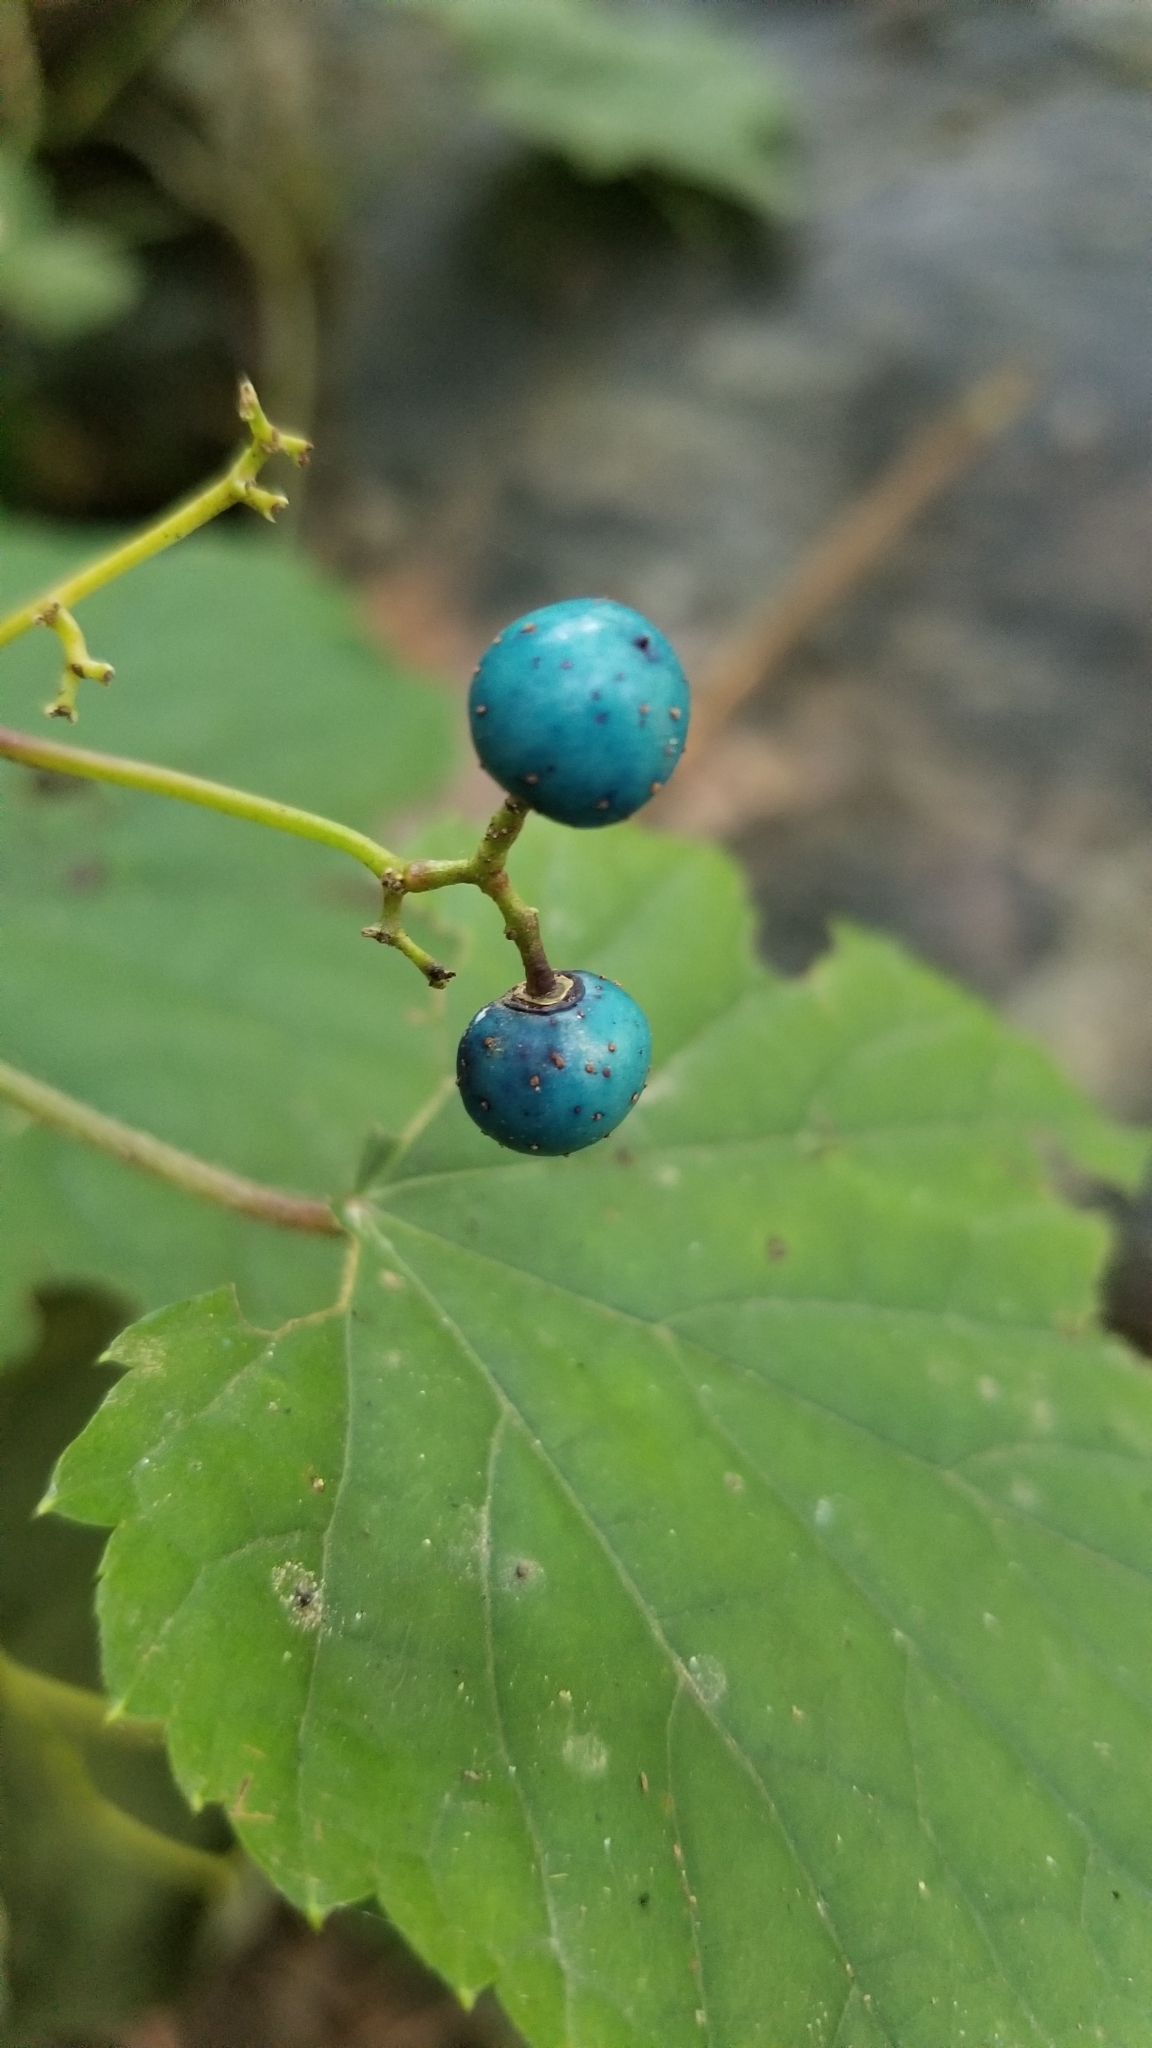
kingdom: Plantae
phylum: Tracheophyta
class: Magnoliopsida
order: Vitales
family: Vitaceae
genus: Ampelopsis
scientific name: Ampelopsis glandulosa
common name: Amur peppervine
